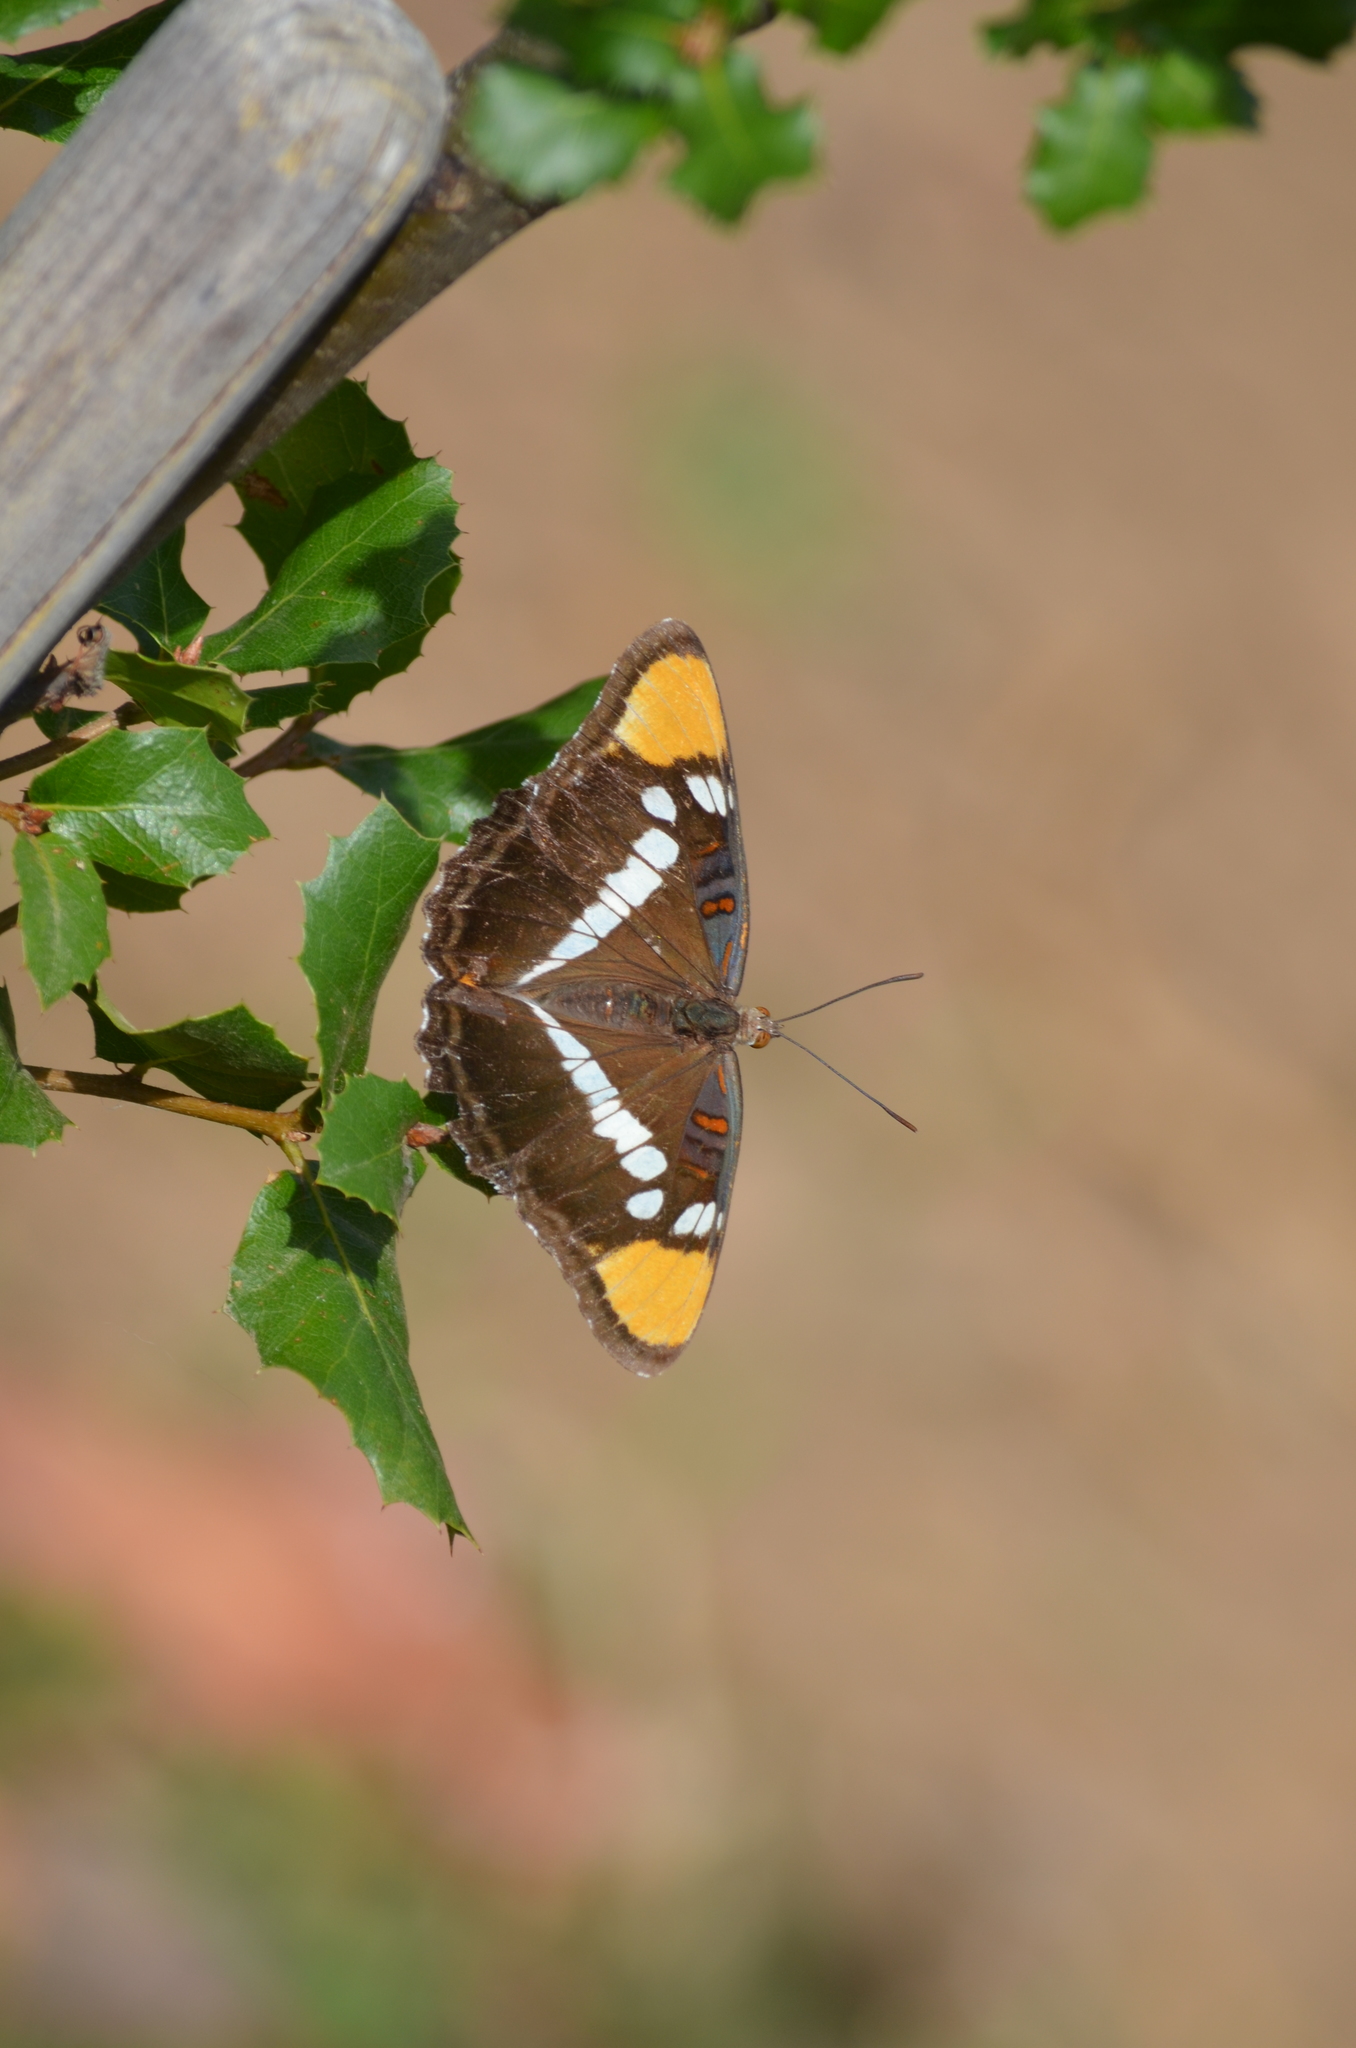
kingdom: Animalia
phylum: Arthropoda
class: Insecta
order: Lepidoptera
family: Nymphalidae
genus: Limenitis
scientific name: Limenitis bredowii
